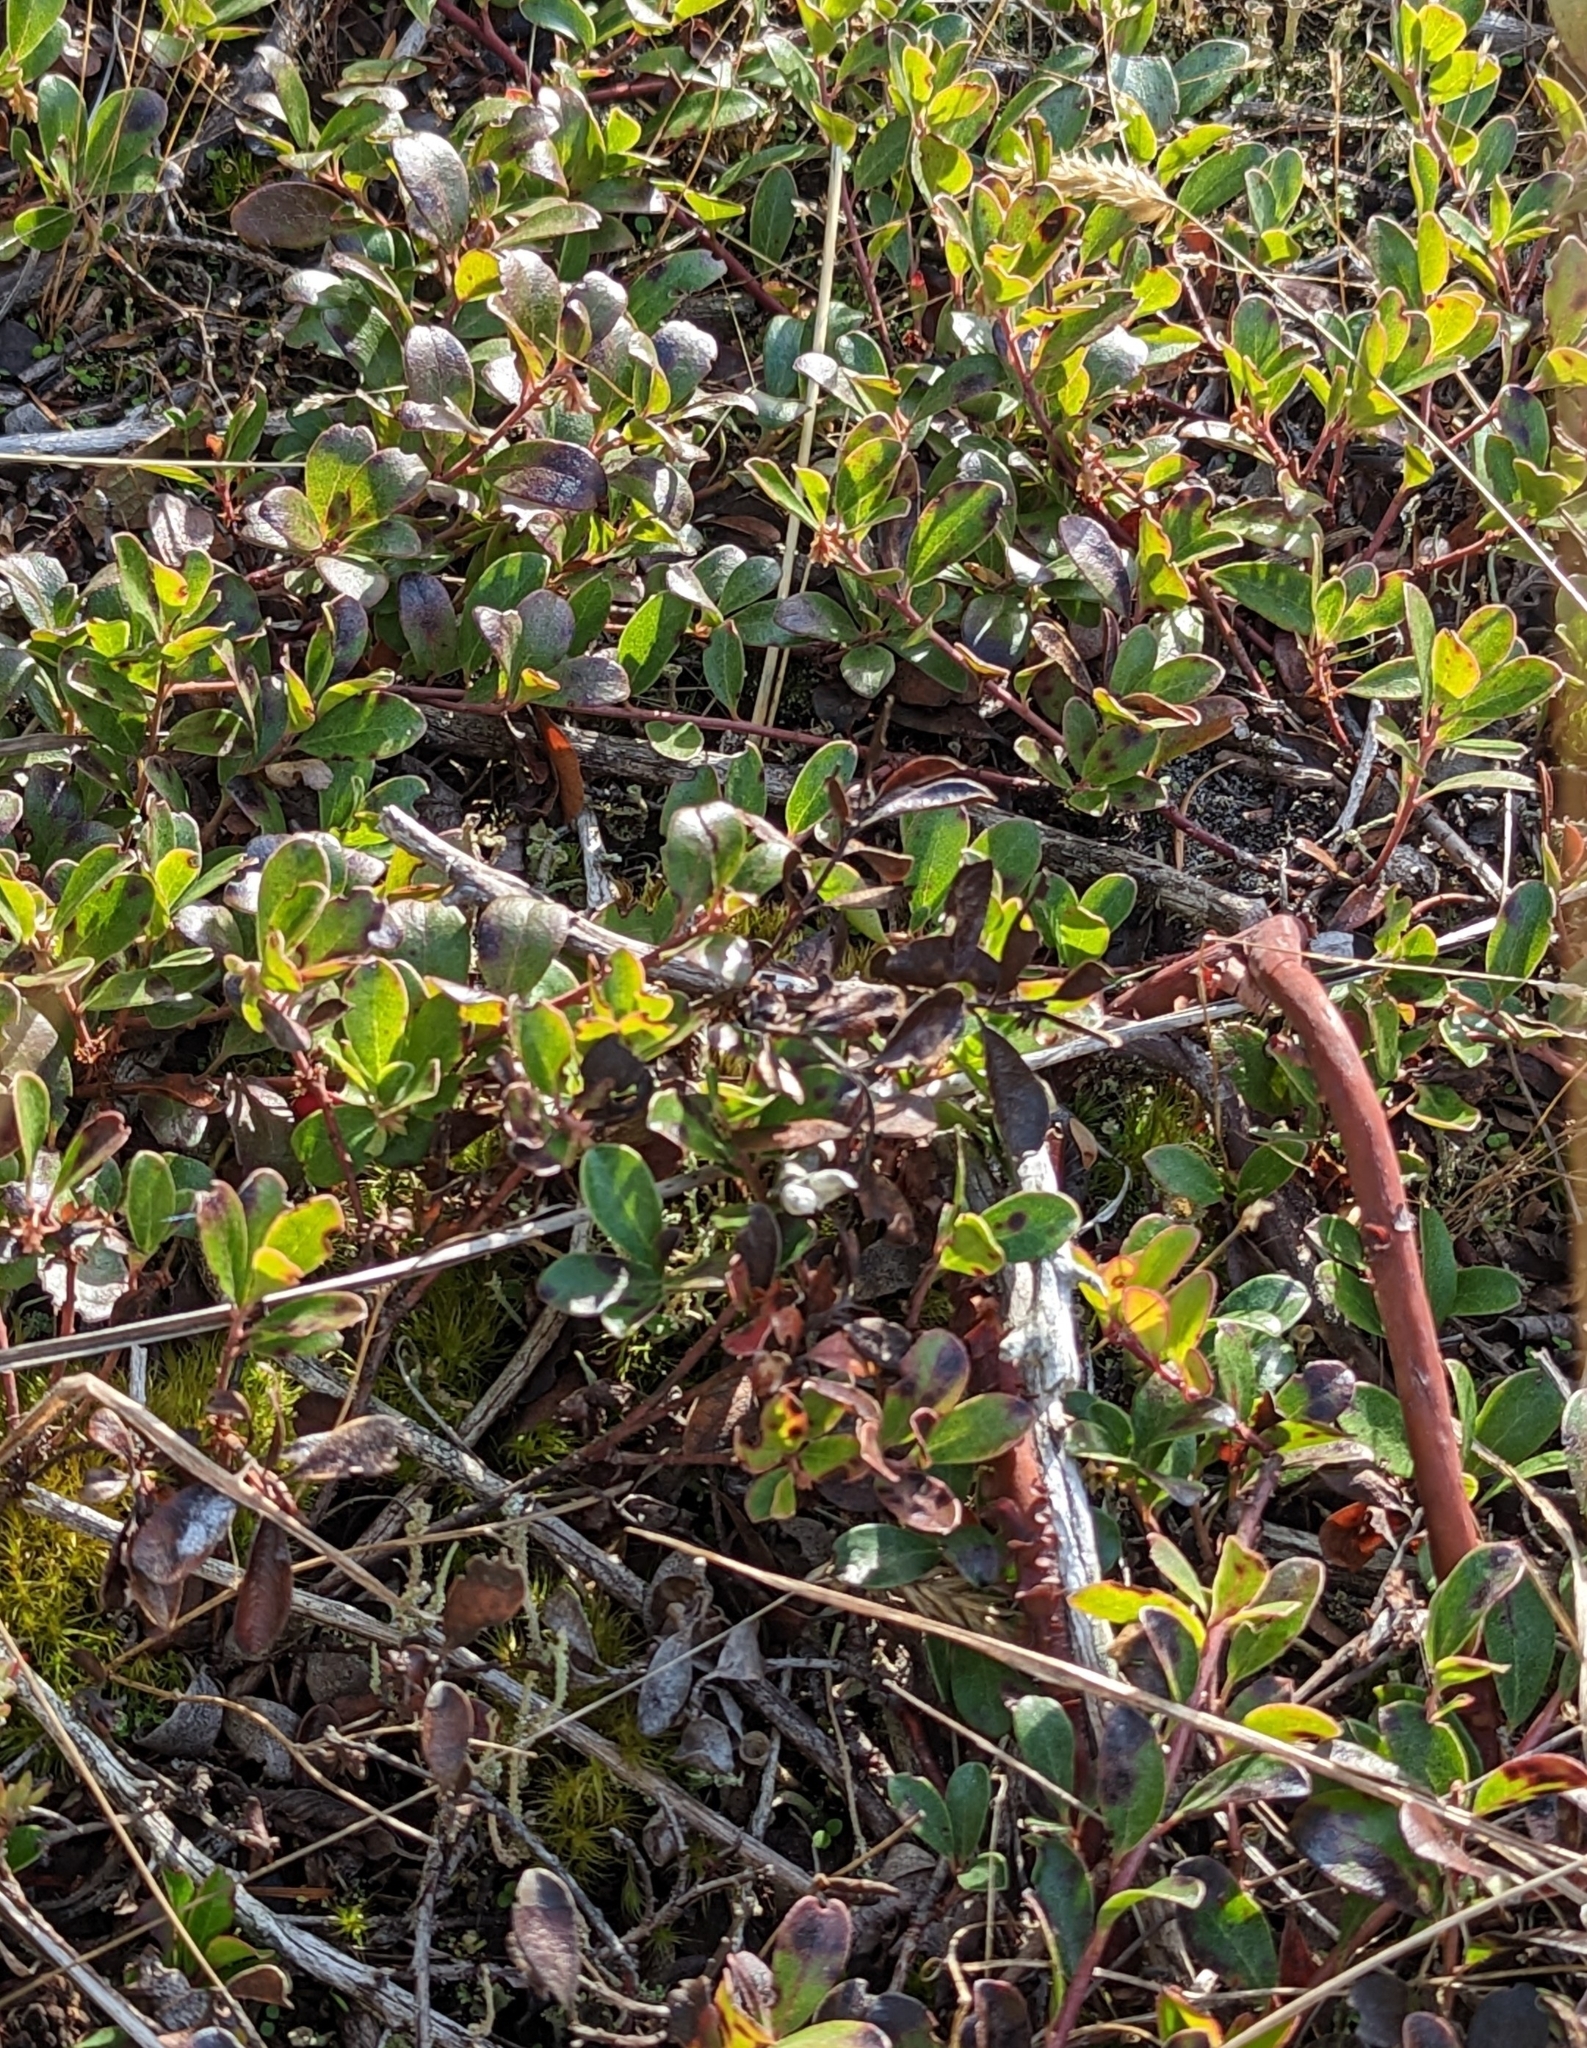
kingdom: Plantae
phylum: Tracheophyta
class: Magnoliopsida
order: Ericales
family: Ericaceae
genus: Arctostaphylos
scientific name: Arctostaphylos uva-ursi
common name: Bearberry
